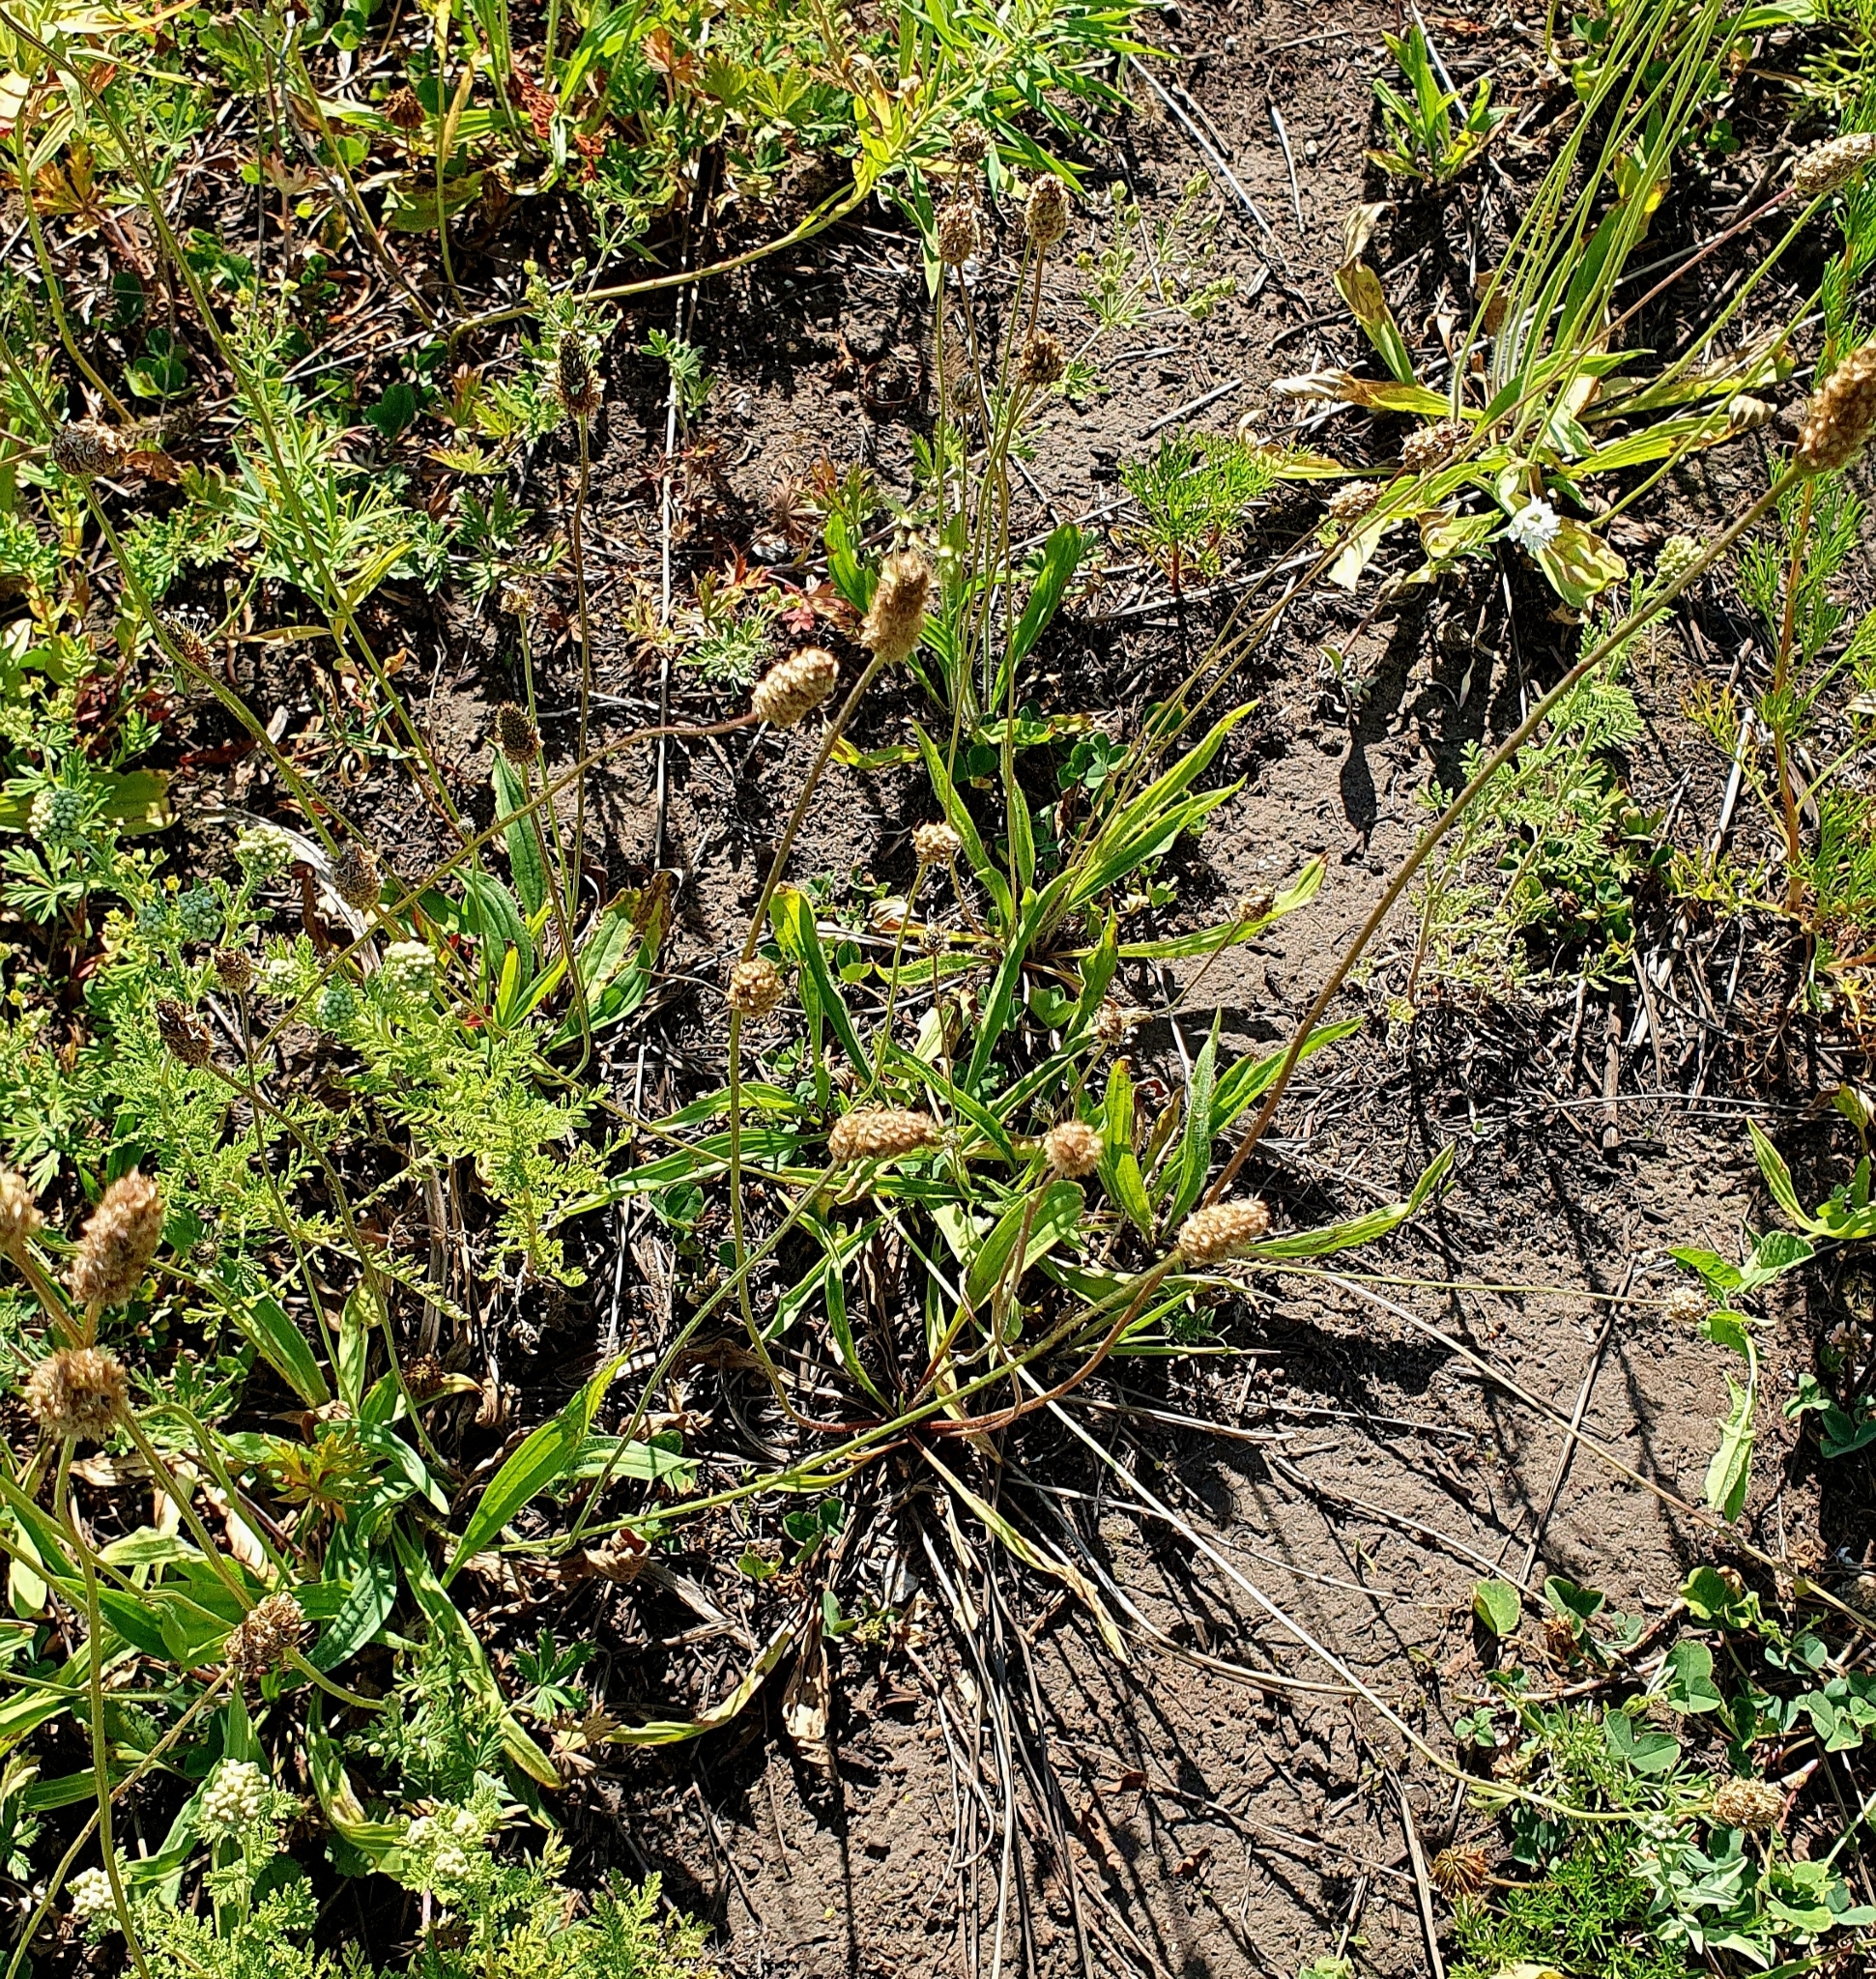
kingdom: Plantae
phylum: Tracheophyta
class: Magnoliopsida
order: Lamiales
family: Plantaginaceae
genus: Plantago
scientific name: Plantago lanceolata
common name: Ribwort plantain
